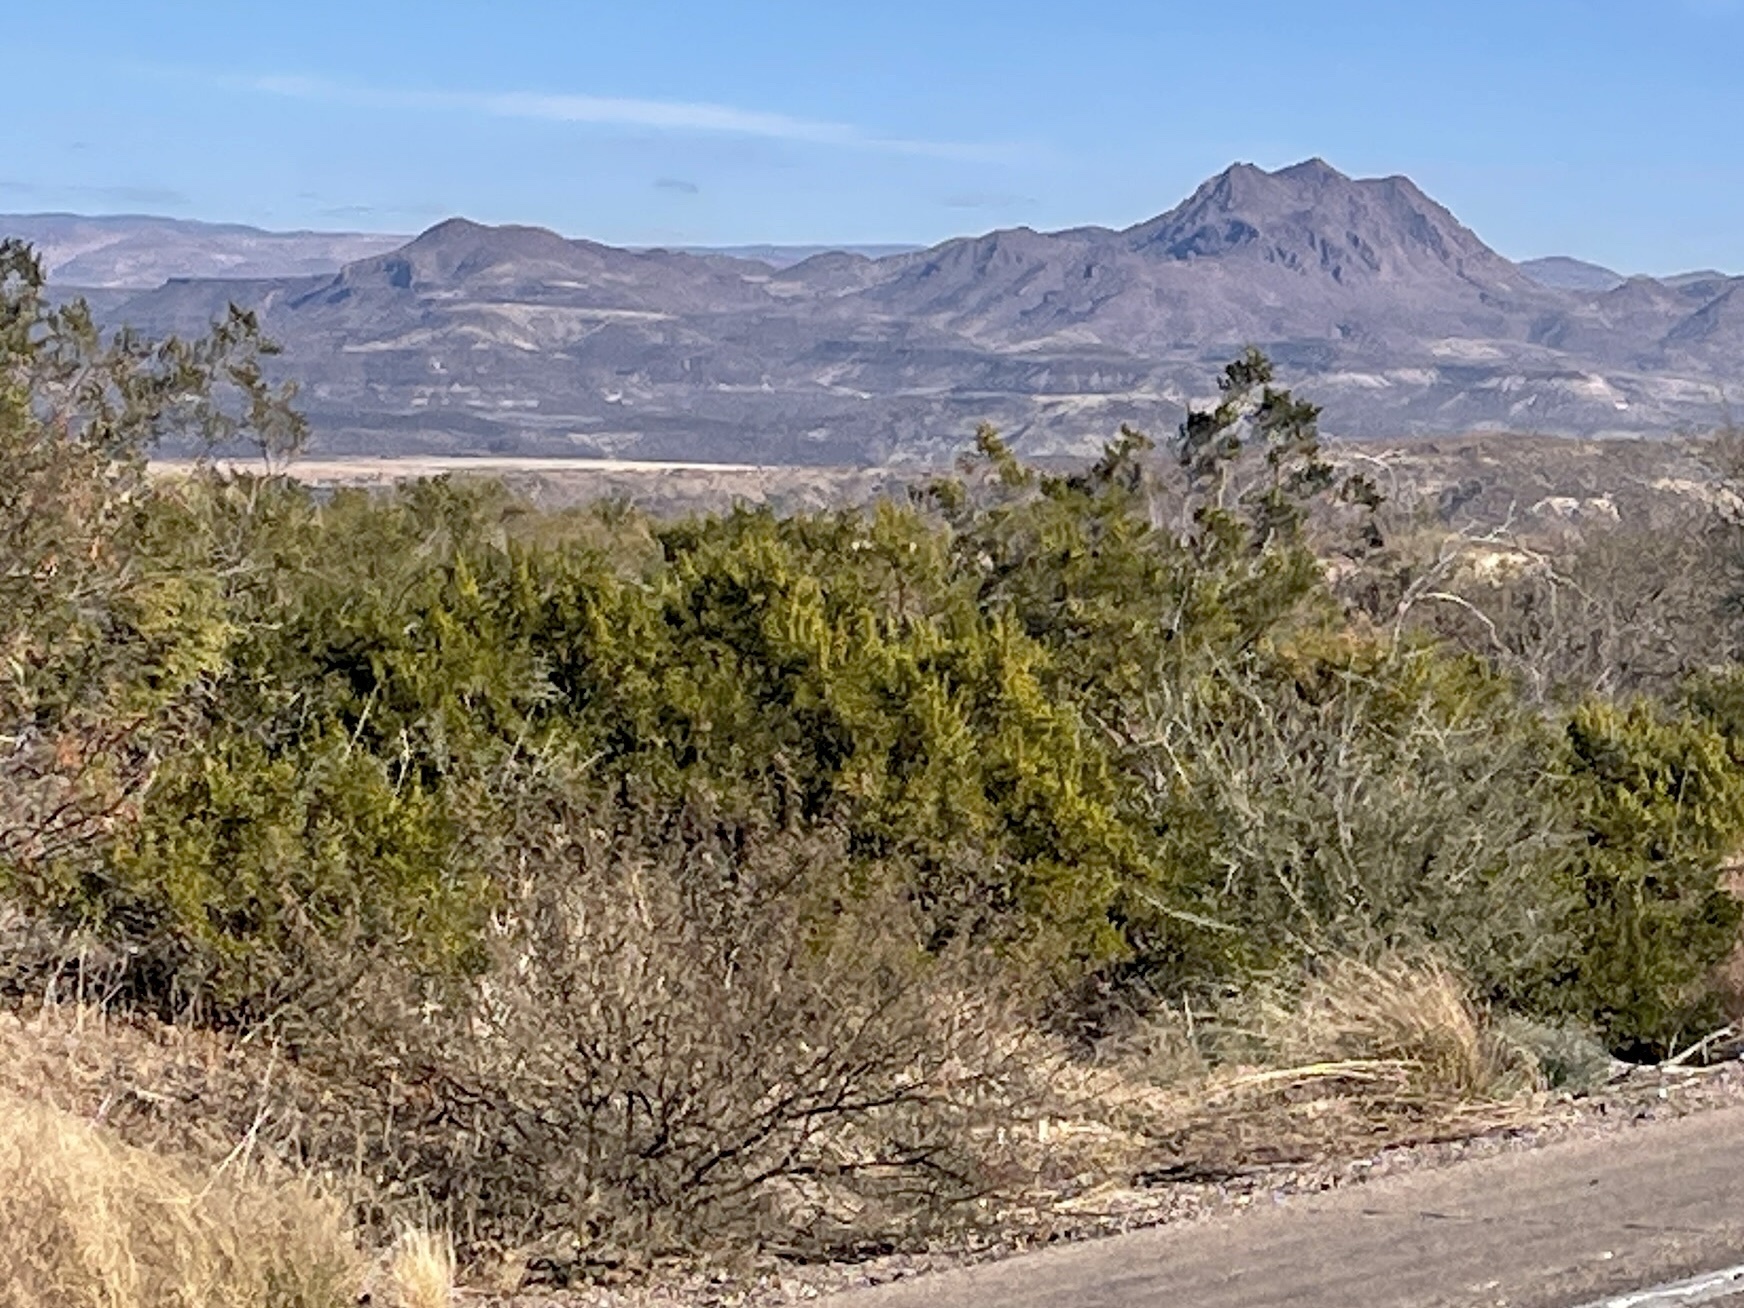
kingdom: Plantae
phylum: Tracheophyta
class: Magnoliopsida
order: Zygophyllales
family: Zygophyllaceae
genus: Larrea
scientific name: Larrea tridentata
